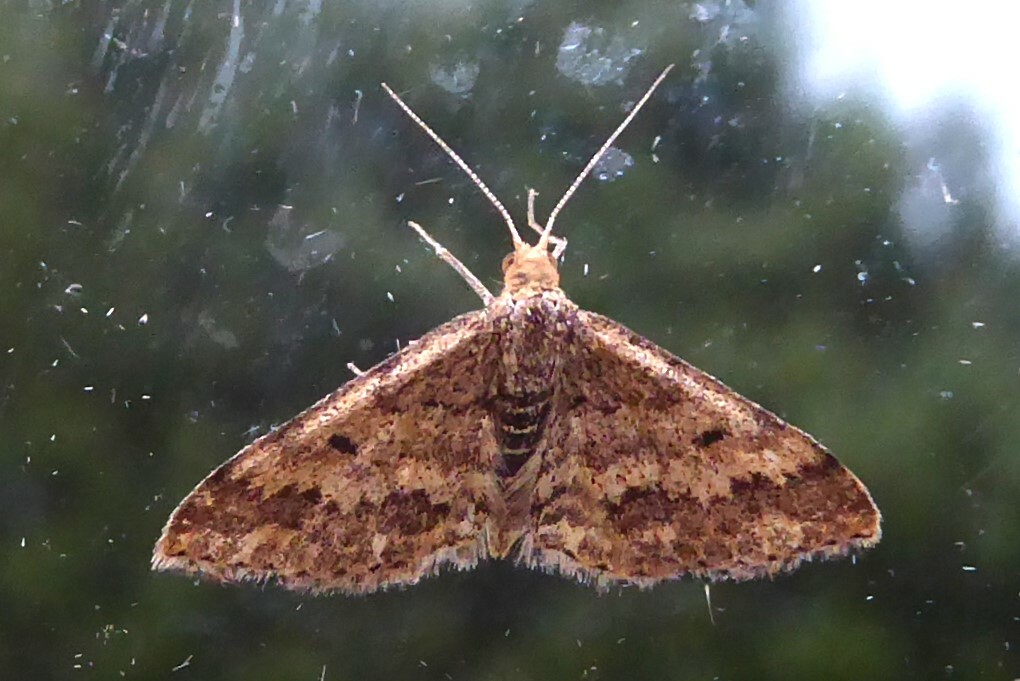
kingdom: Animalia
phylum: Arthropoda
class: Insecta
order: Lepidoptera
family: Geometridae
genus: Scopula
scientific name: Scopula rubraria
